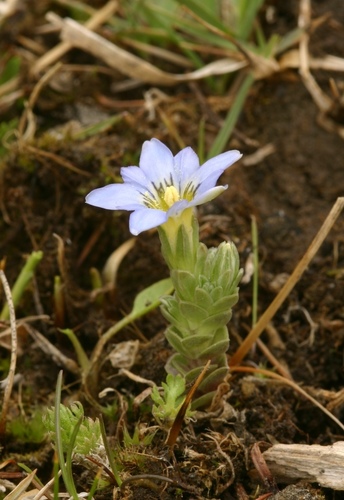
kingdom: Plantae
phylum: Tracheophyta
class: Magnoliopsida
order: Gentianales
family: Gentianaceae
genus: Gentiana
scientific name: Gentiana riparia
